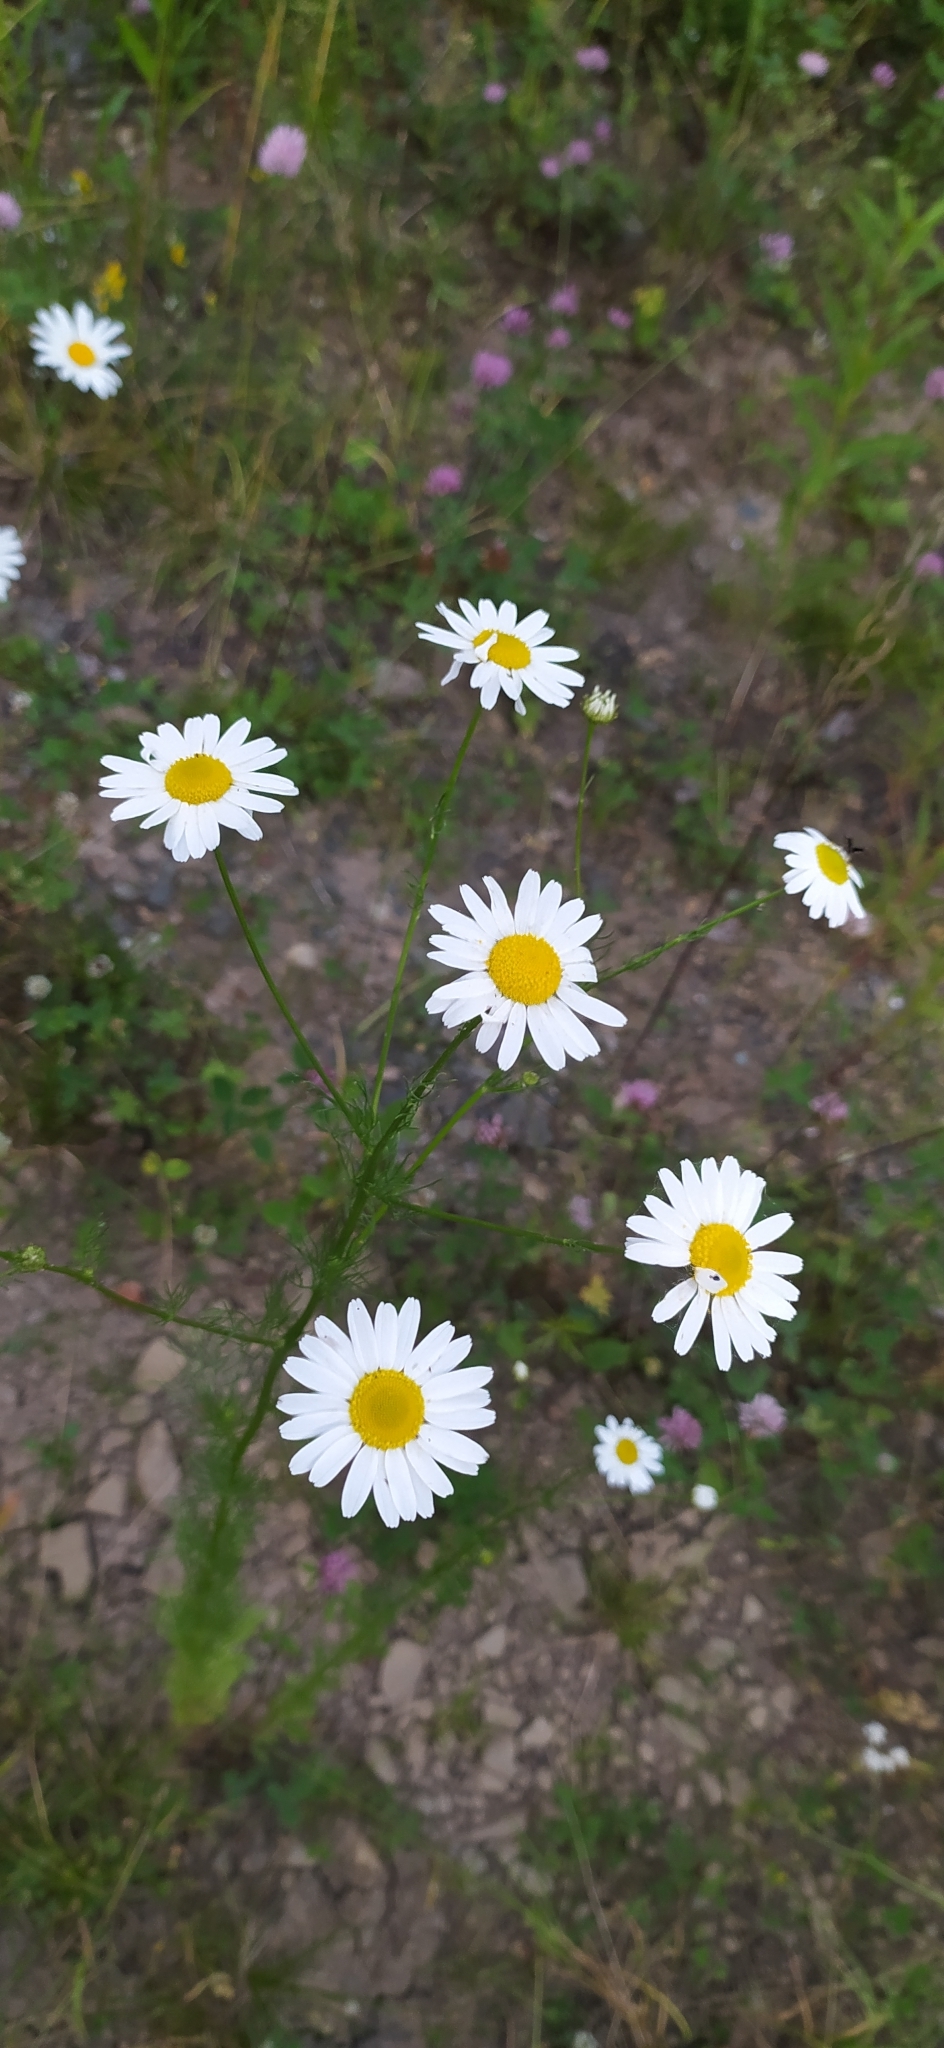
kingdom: Plantae
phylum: Tracheophyta
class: Magnoliopsida
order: Asterales
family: Asteraceae
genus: Tripleurospermum
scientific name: Tripleurospermum inodorum
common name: Scentless mayweed
